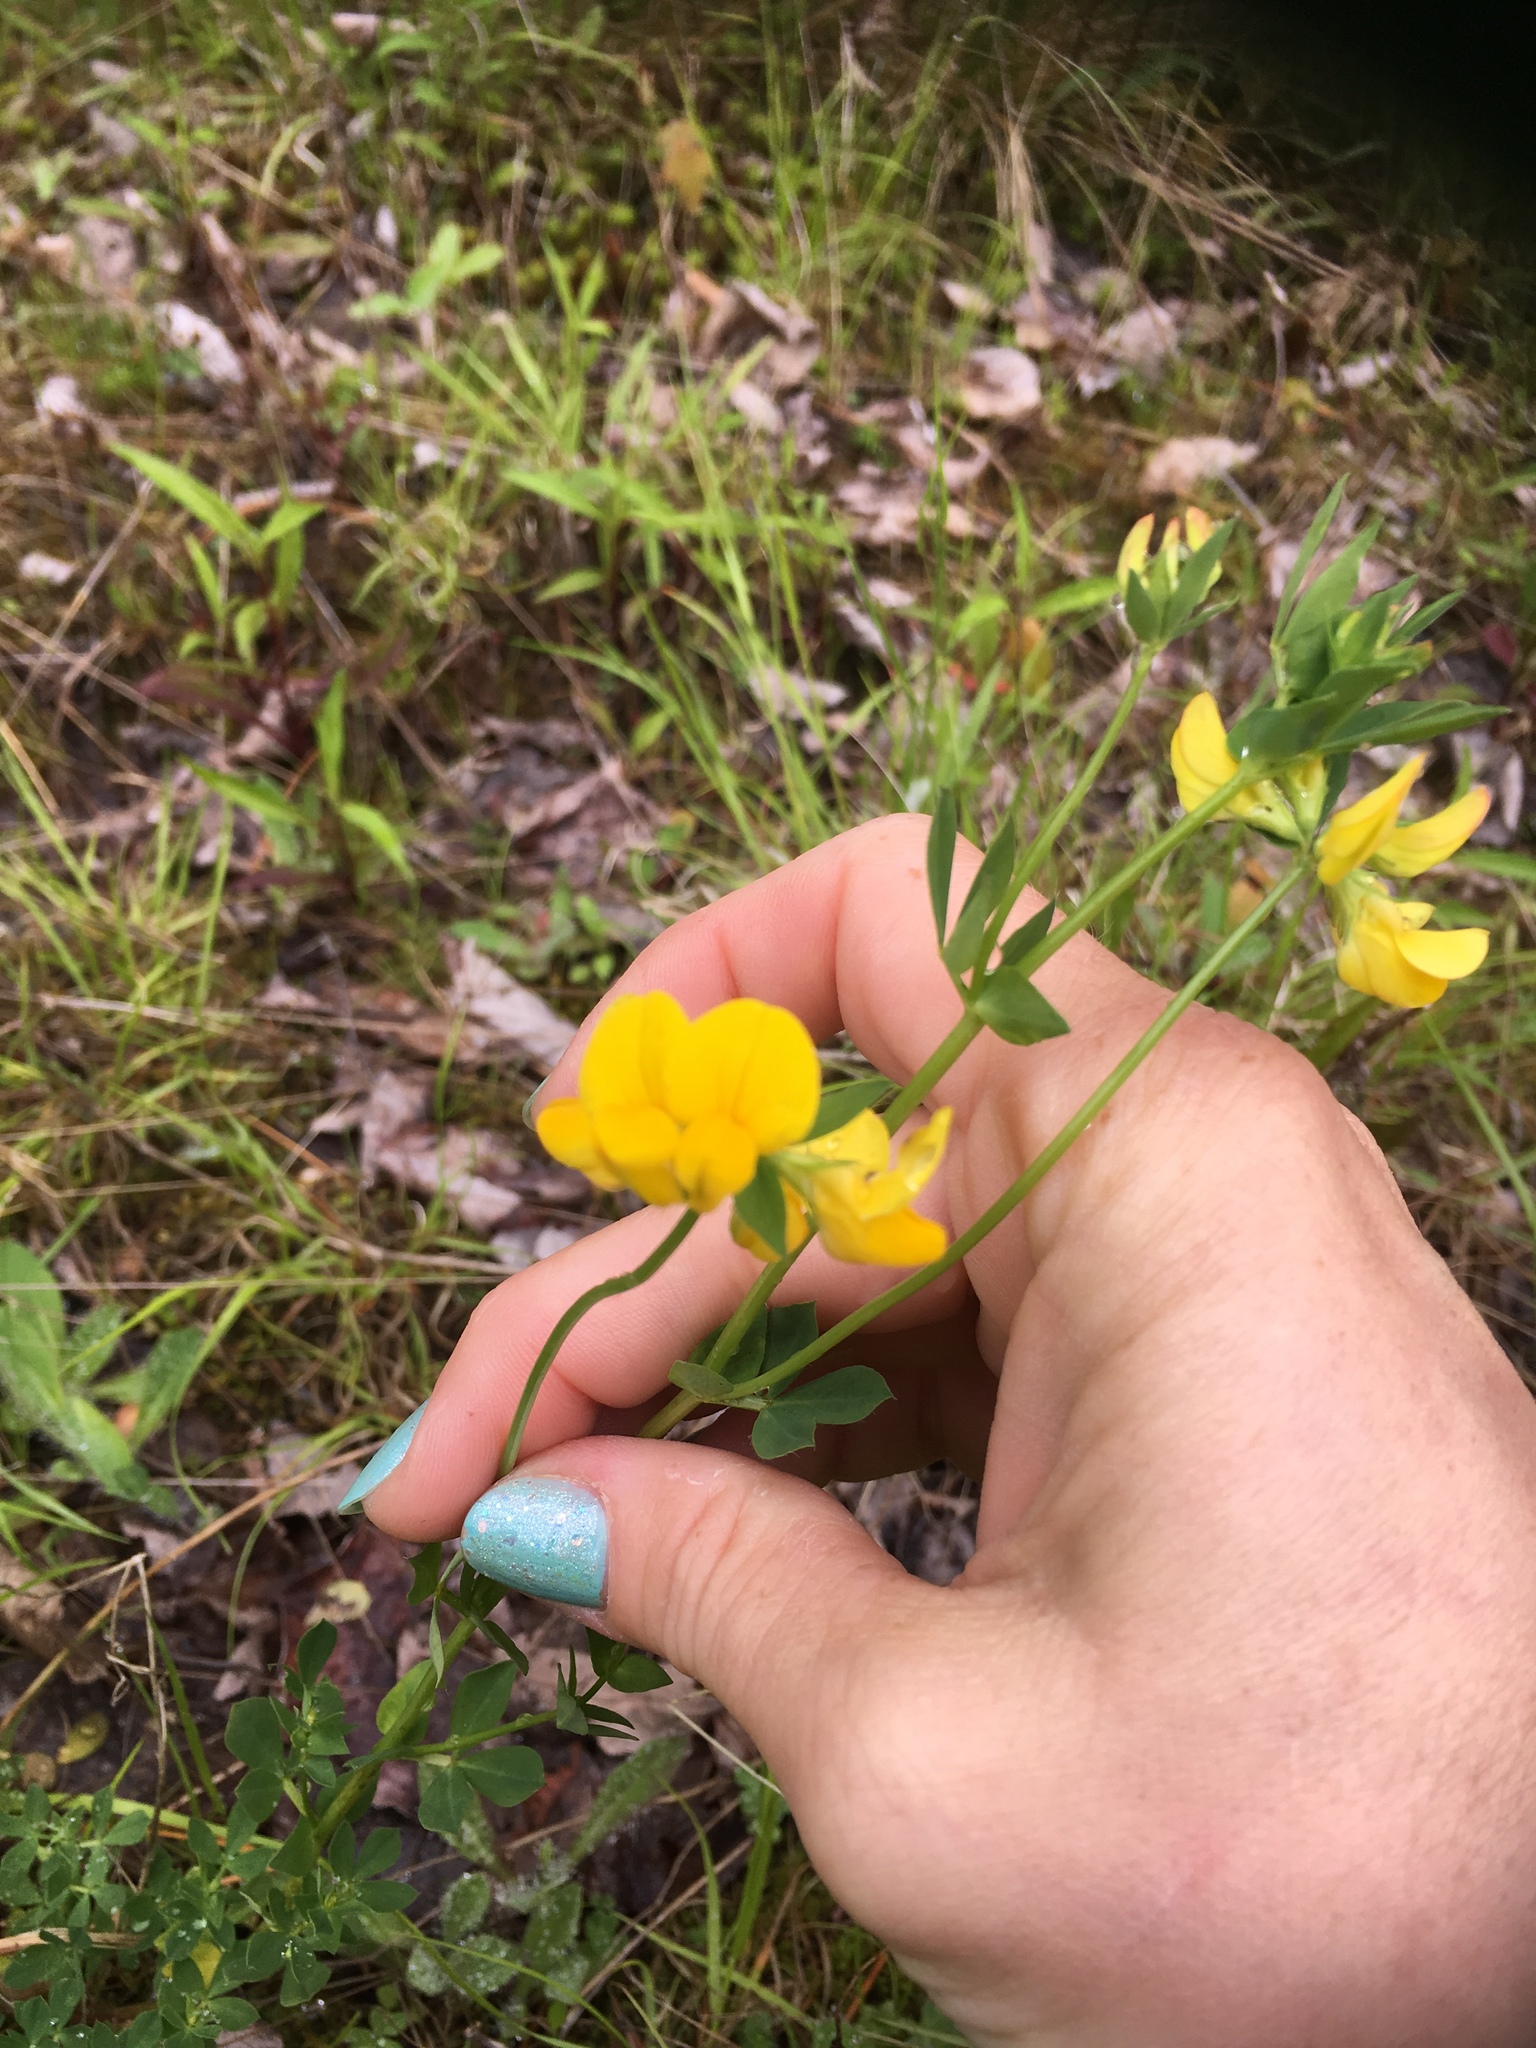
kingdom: Plantae
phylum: Tracheophyta
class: Magnoliopsida
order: Fabales
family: Fabaceae
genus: Lotus
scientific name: Lotus corniculatus
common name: Common bird's-foot-trefoil
